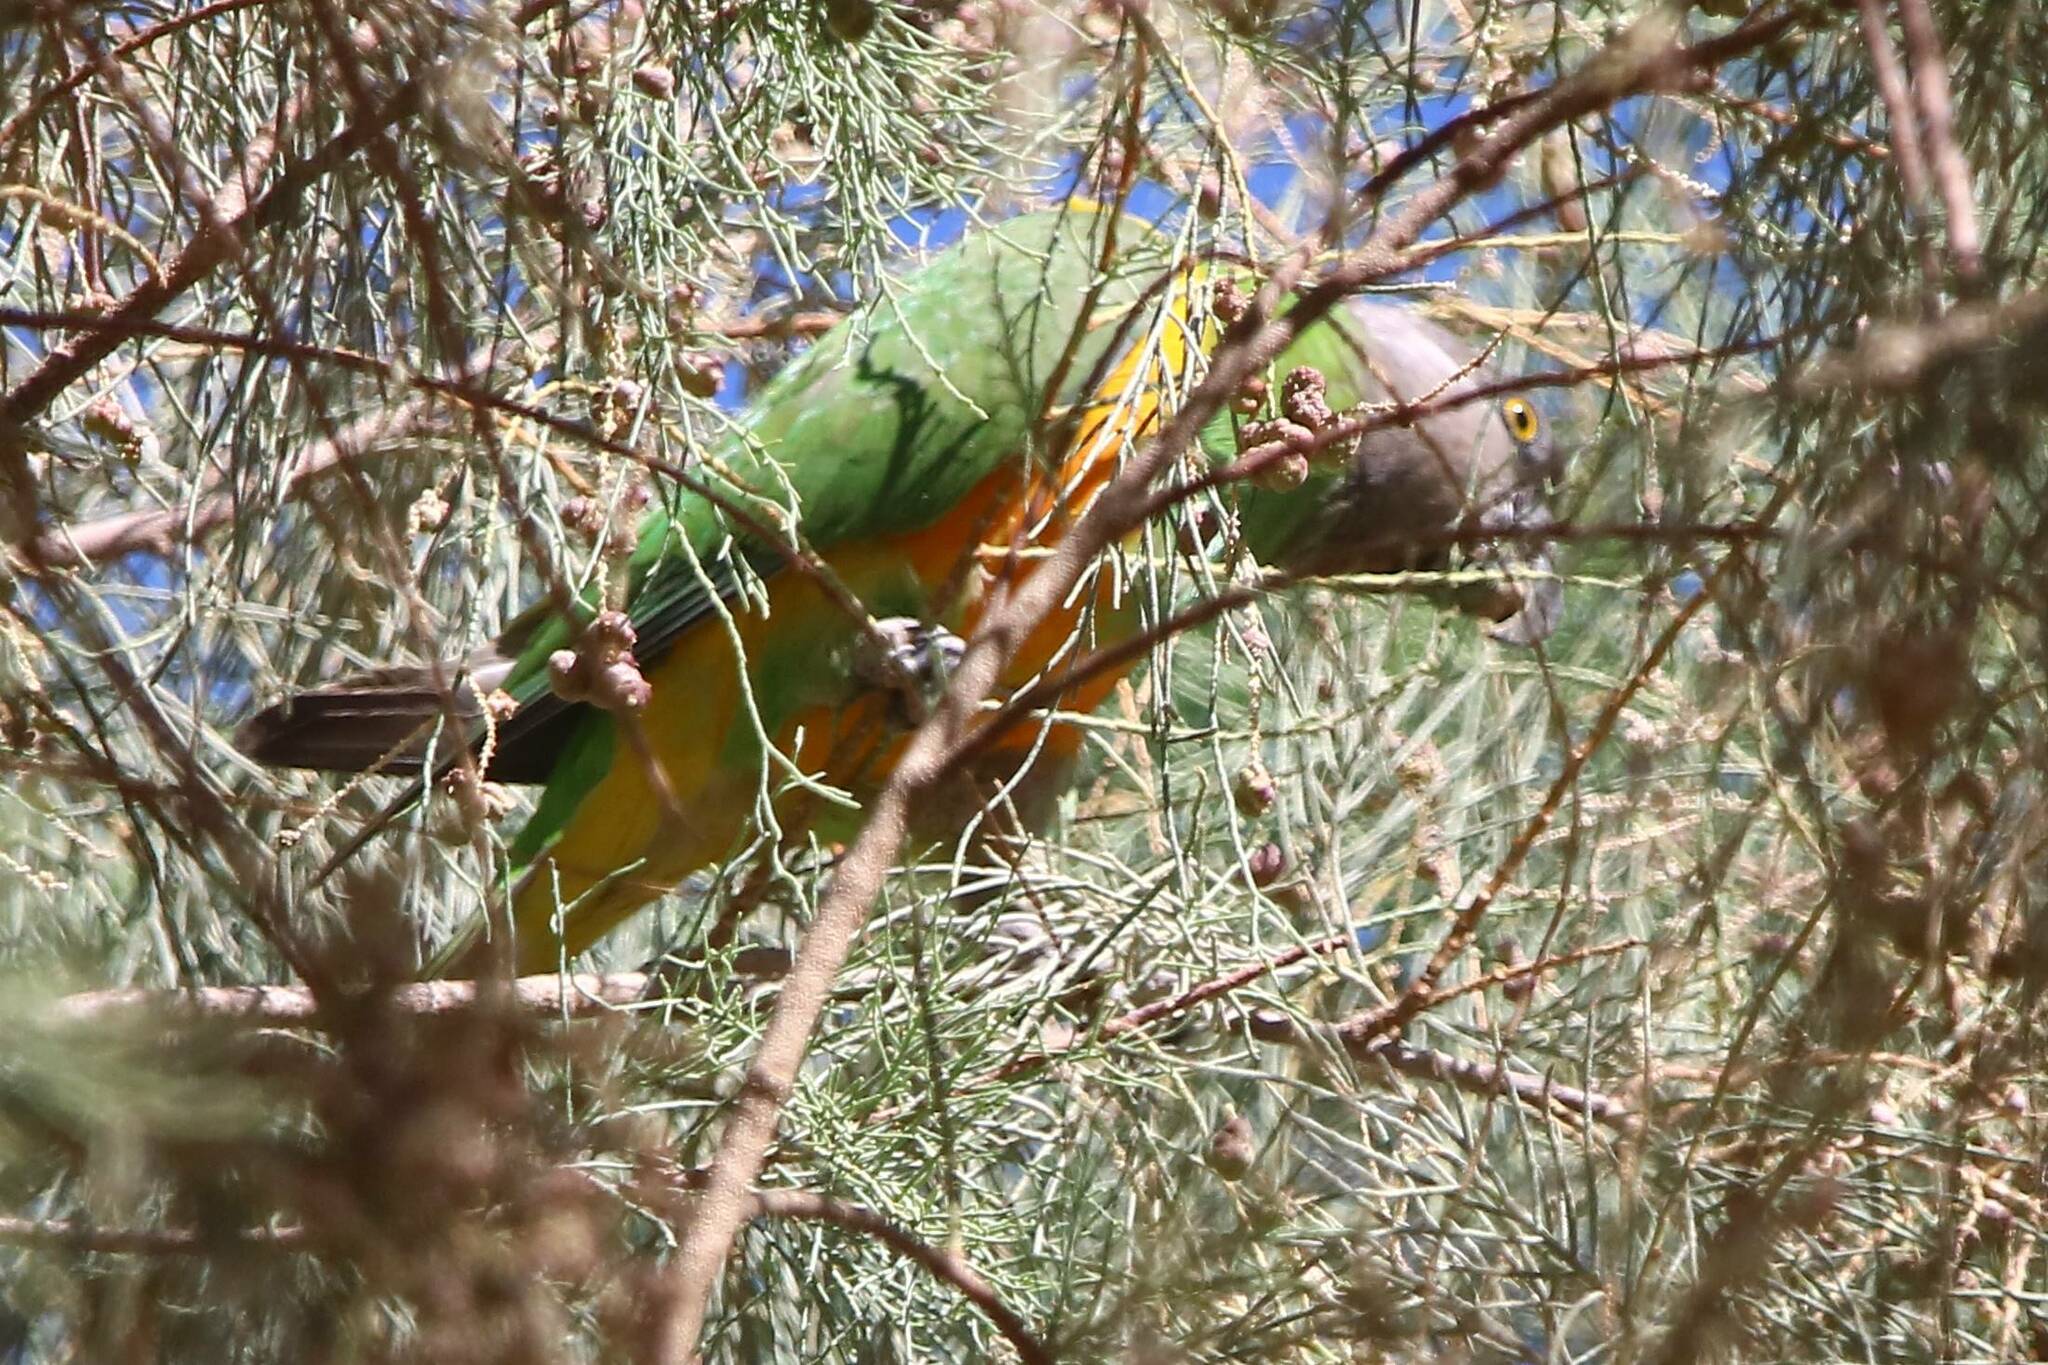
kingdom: Animalia
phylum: Chordata
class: Aves
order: Psittaciformes
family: Psittacidae
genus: Poicephalus
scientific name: Poicephalus senegalus
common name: Senegal parrot
